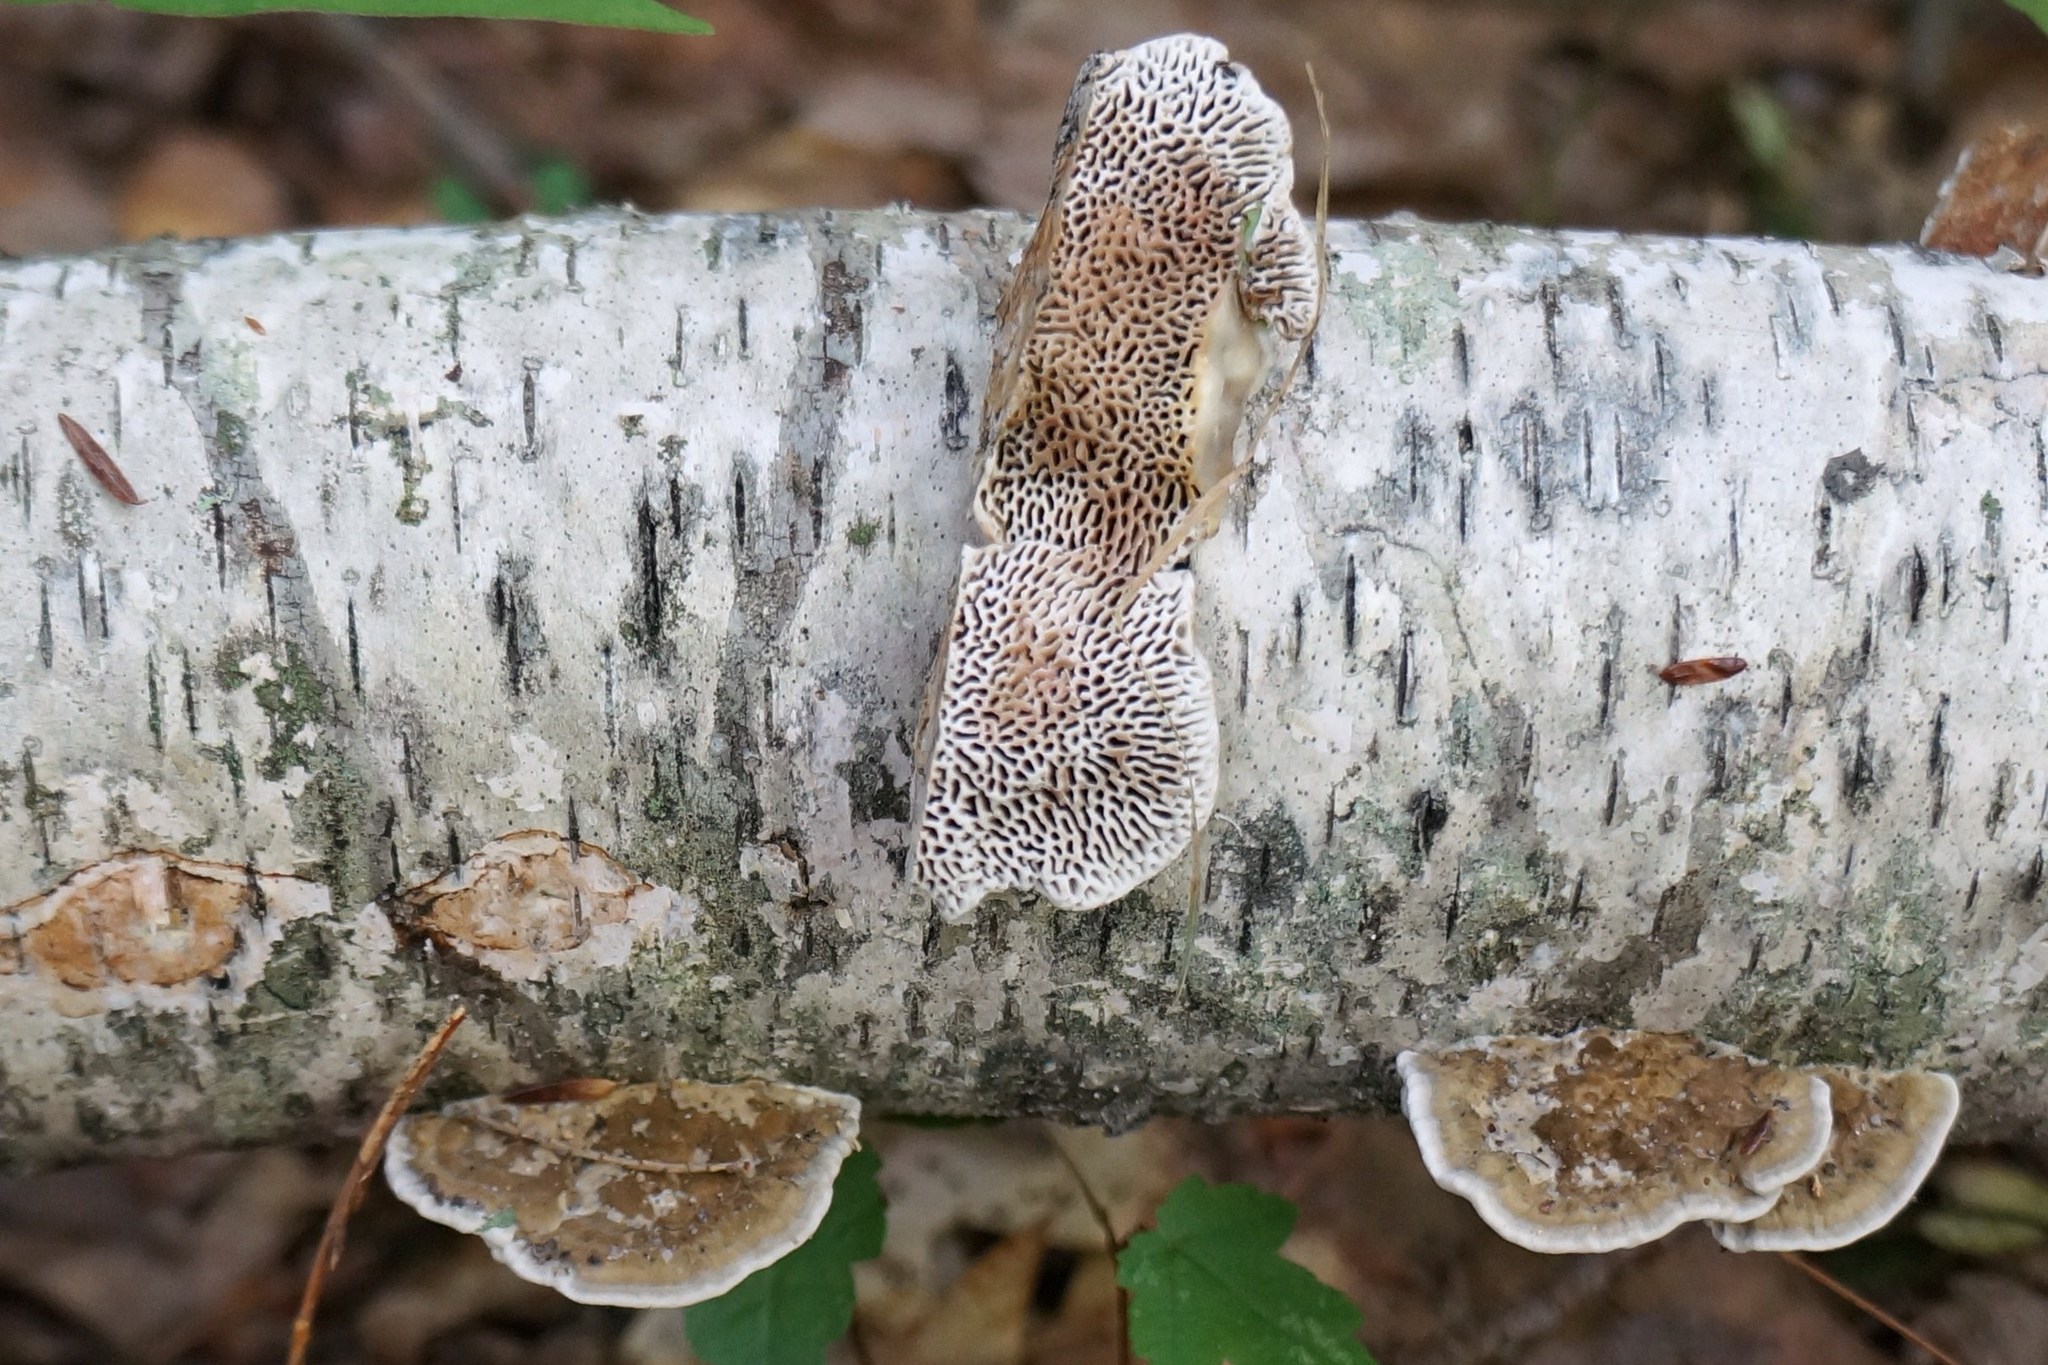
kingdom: Fungi
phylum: Basidiomycota
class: Agaricomycetes
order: Polyporales
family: Polyporaceae
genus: Daedaleopsis
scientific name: Daedaleopsis confragosa
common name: Blushing bracket
